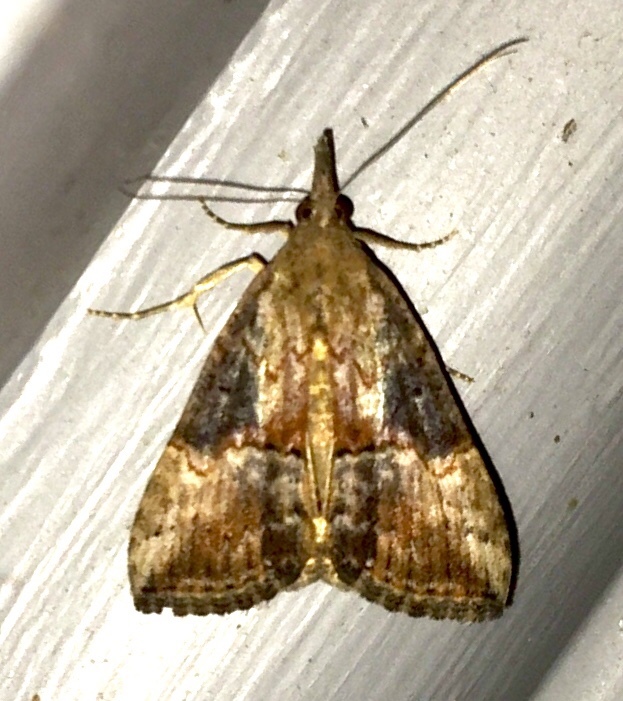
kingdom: Animalia
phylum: Arthropoda
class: Insecta
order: Lepidoptera
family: Erebidae
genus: Hypena
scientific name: Hypena scabra
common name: Green cloverworm
